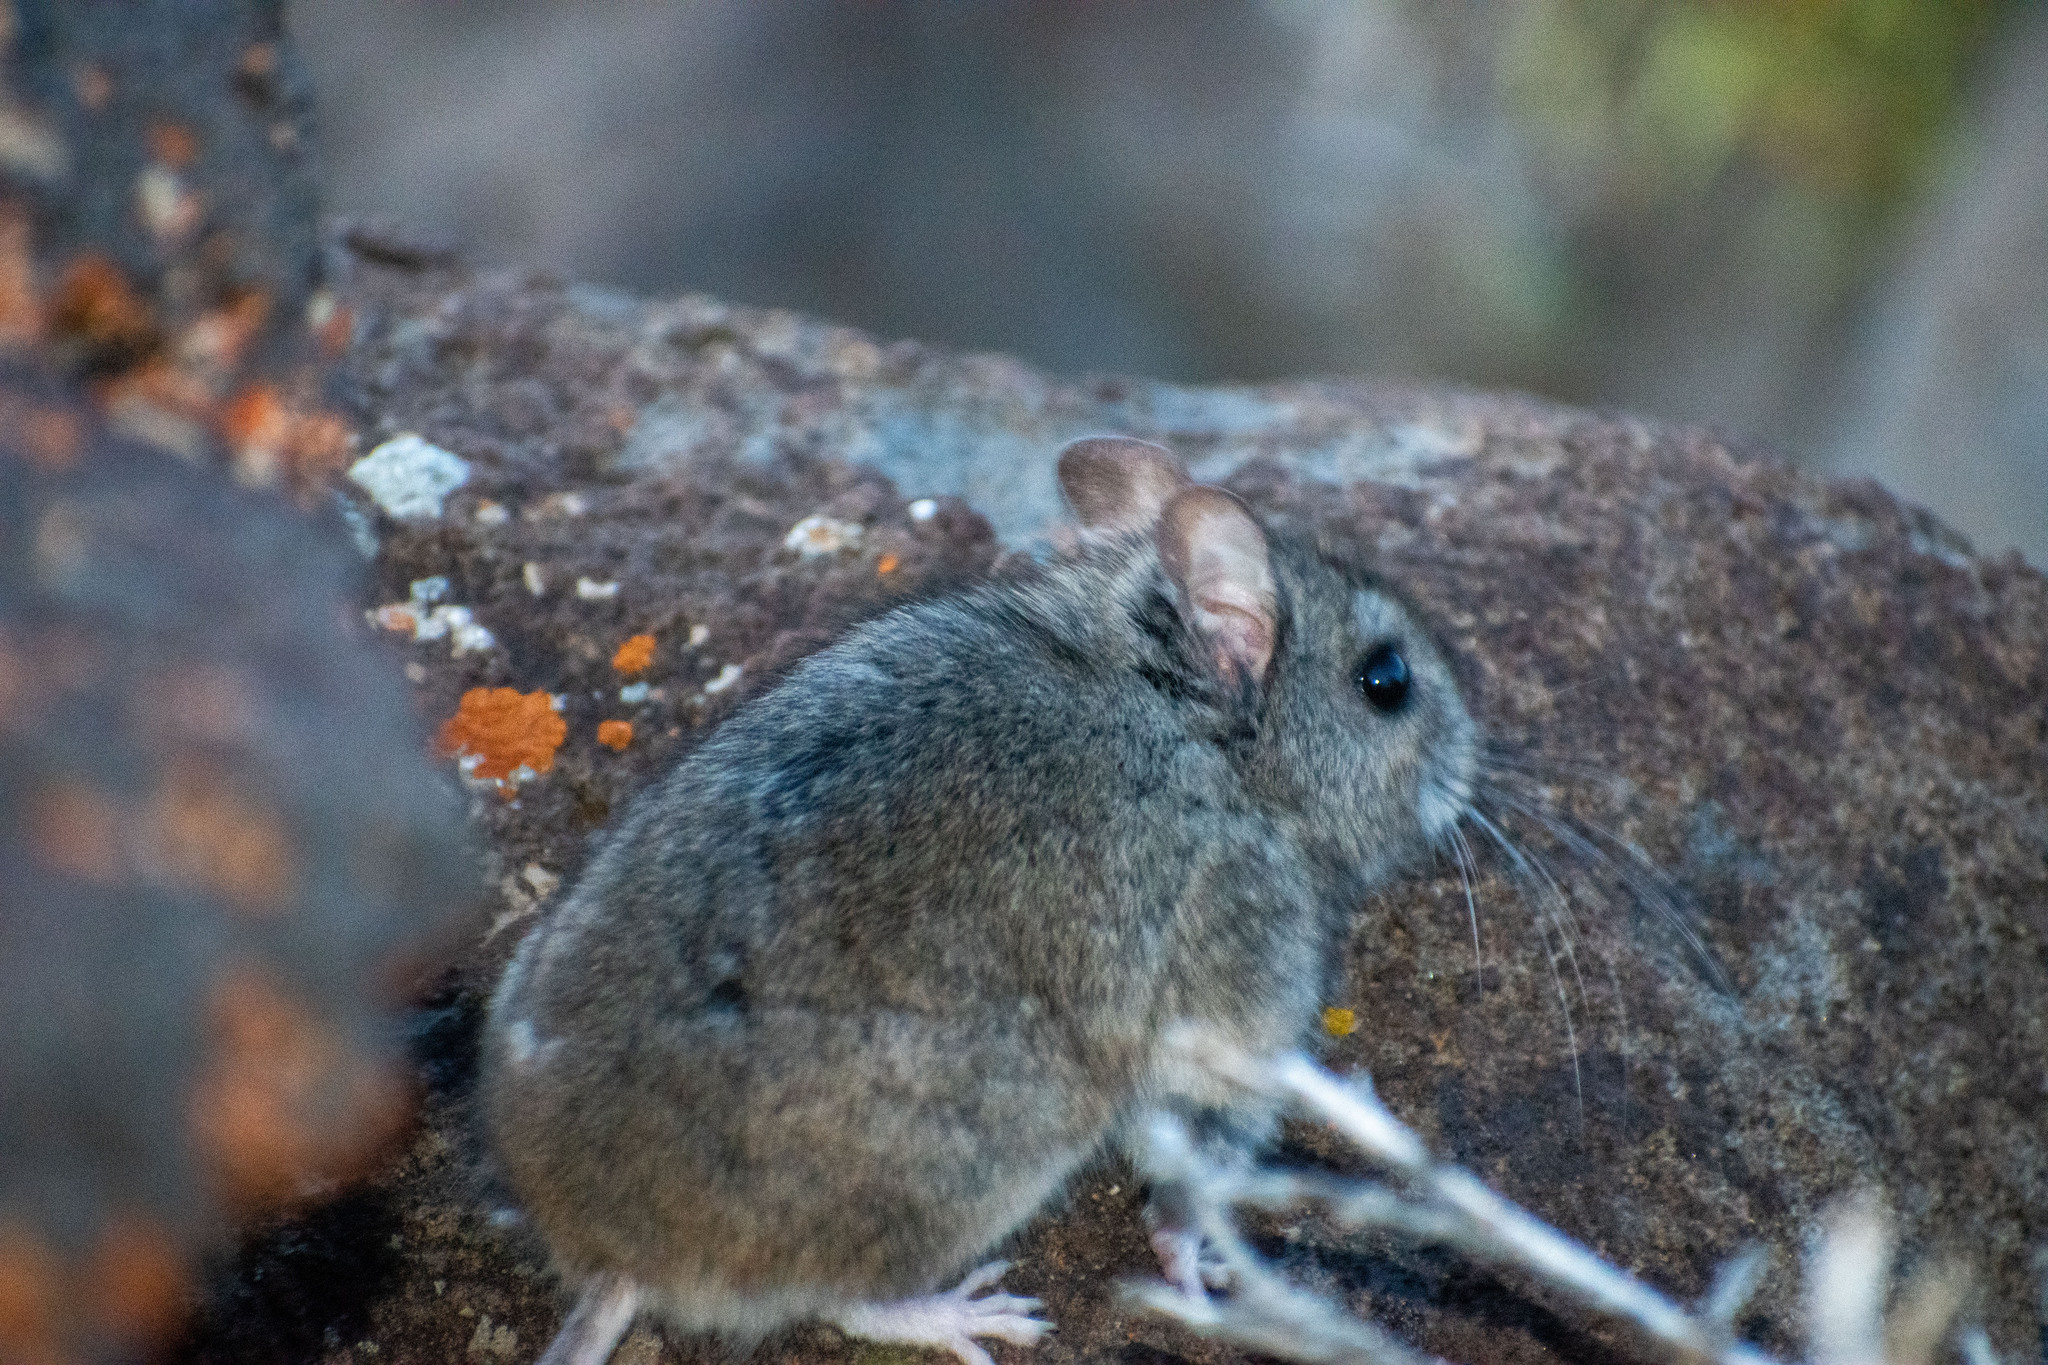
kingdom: Animalia
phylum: Chordata
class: Mammalia
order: Rodentia
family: Cricetidae
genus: Reithrodon
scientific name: Reithrodon auritus
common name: Bunny rat
